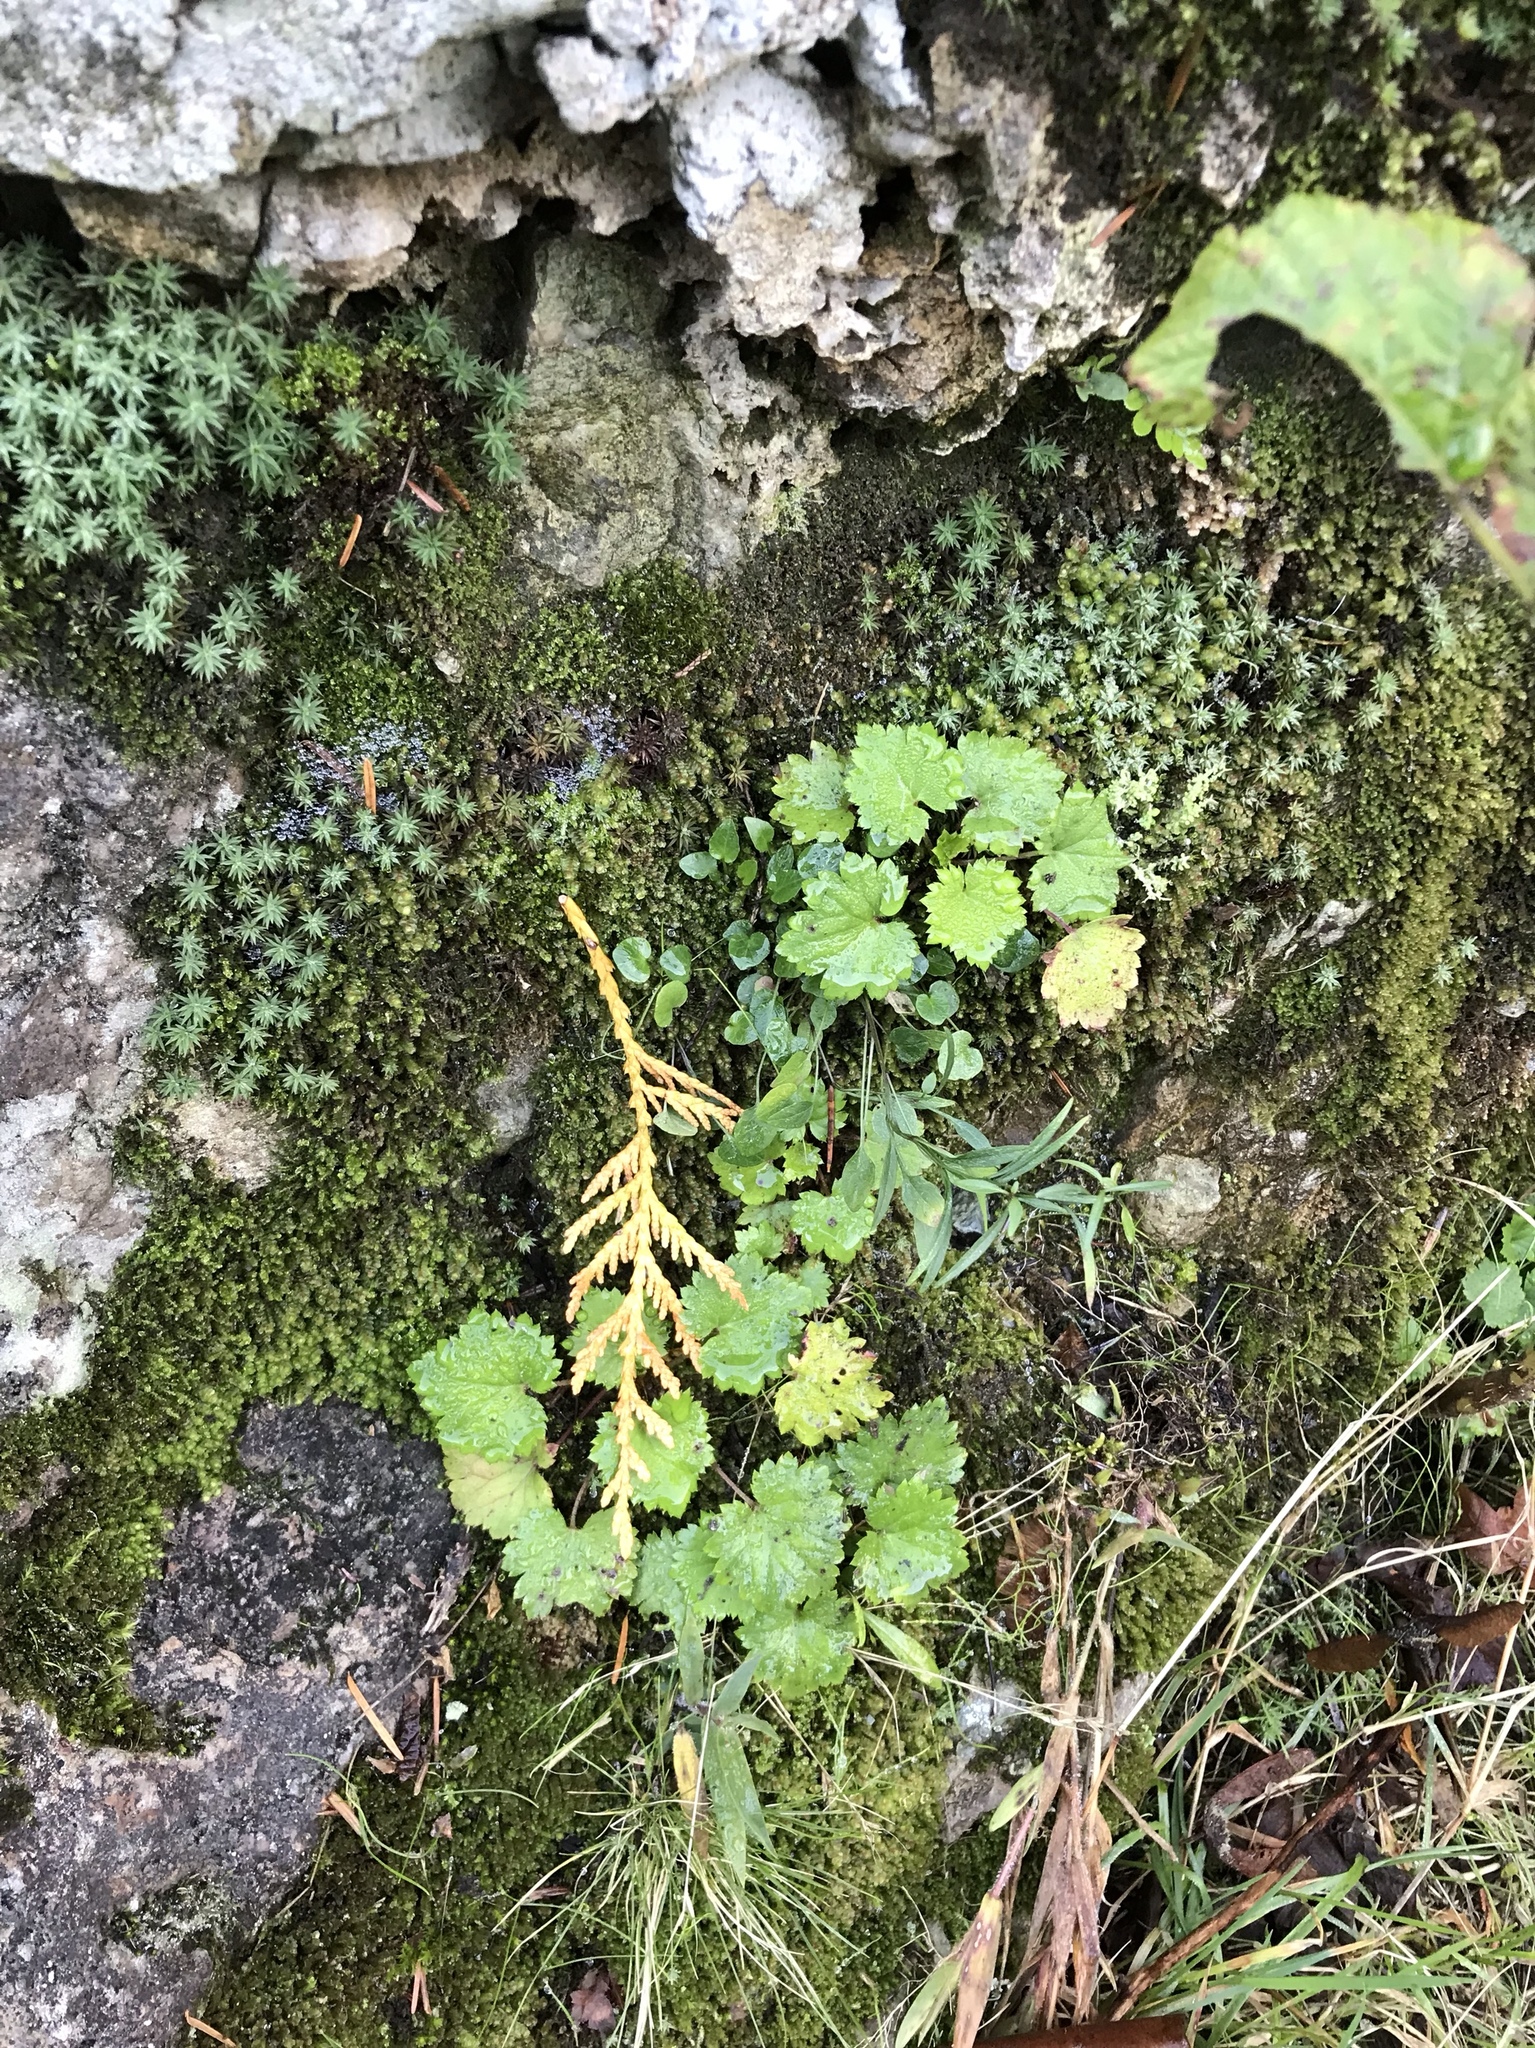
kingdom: Plantae
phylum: Tracheophyta
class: Magnoliopsida
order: Saxifragales
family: Saxifragaceae
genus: Boykinia
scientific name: Boykinia occidentalis
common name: Coast boykinia
